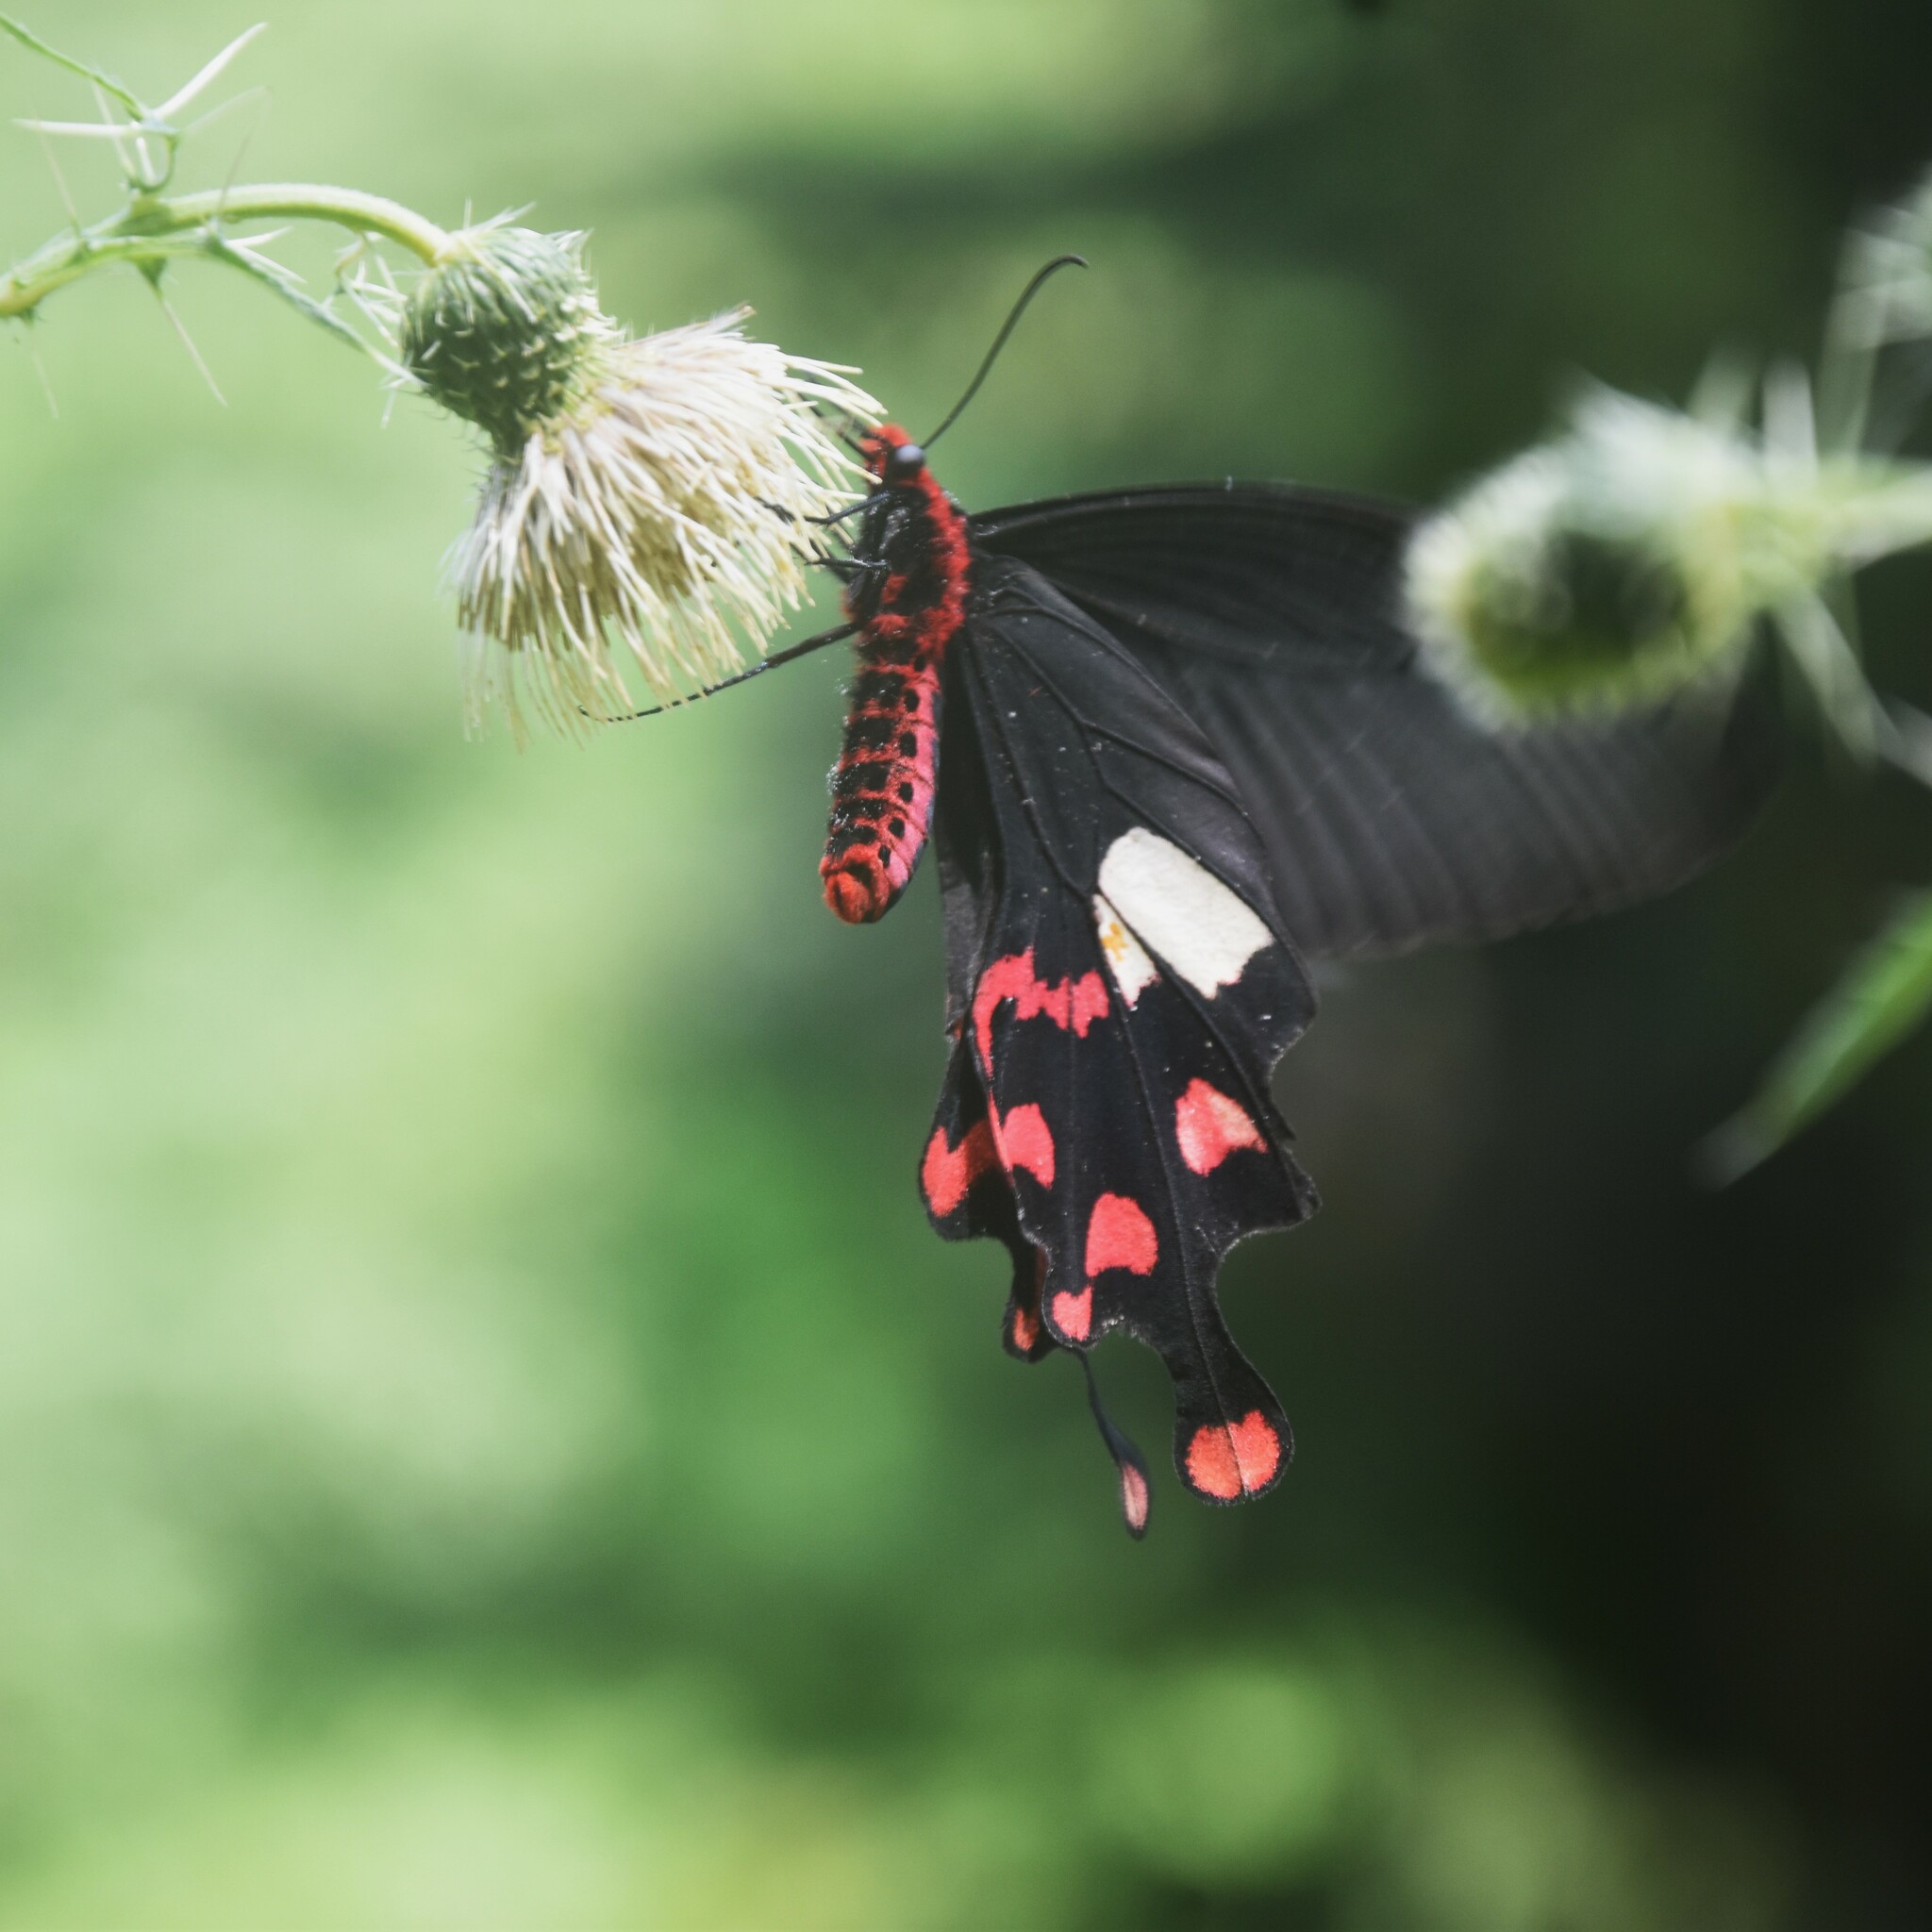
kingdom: Animalia
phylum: Arthropoda
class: Insecta
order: Lepidoptera
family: Papilionidae
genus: Byasa
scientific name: Byasa polyeuctes
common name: Common windmill
